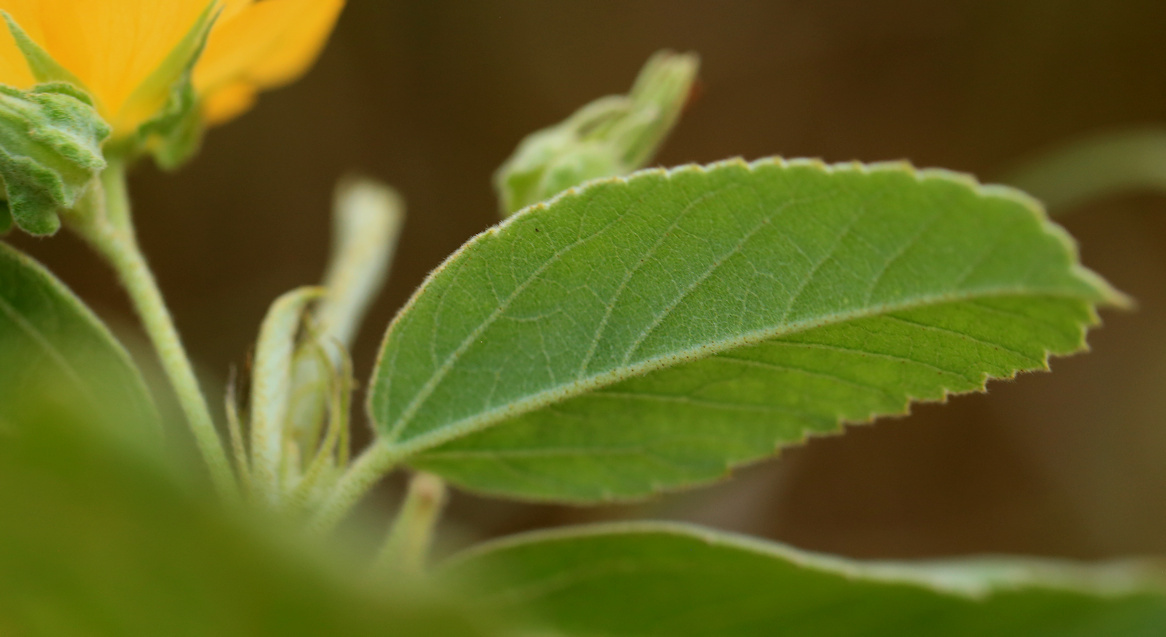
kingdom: Plantae
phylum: Tracheophyta
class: Magnoliopsida
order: Malvales
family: Malvaceae
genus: Melhania
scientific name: Melhania acuminata
